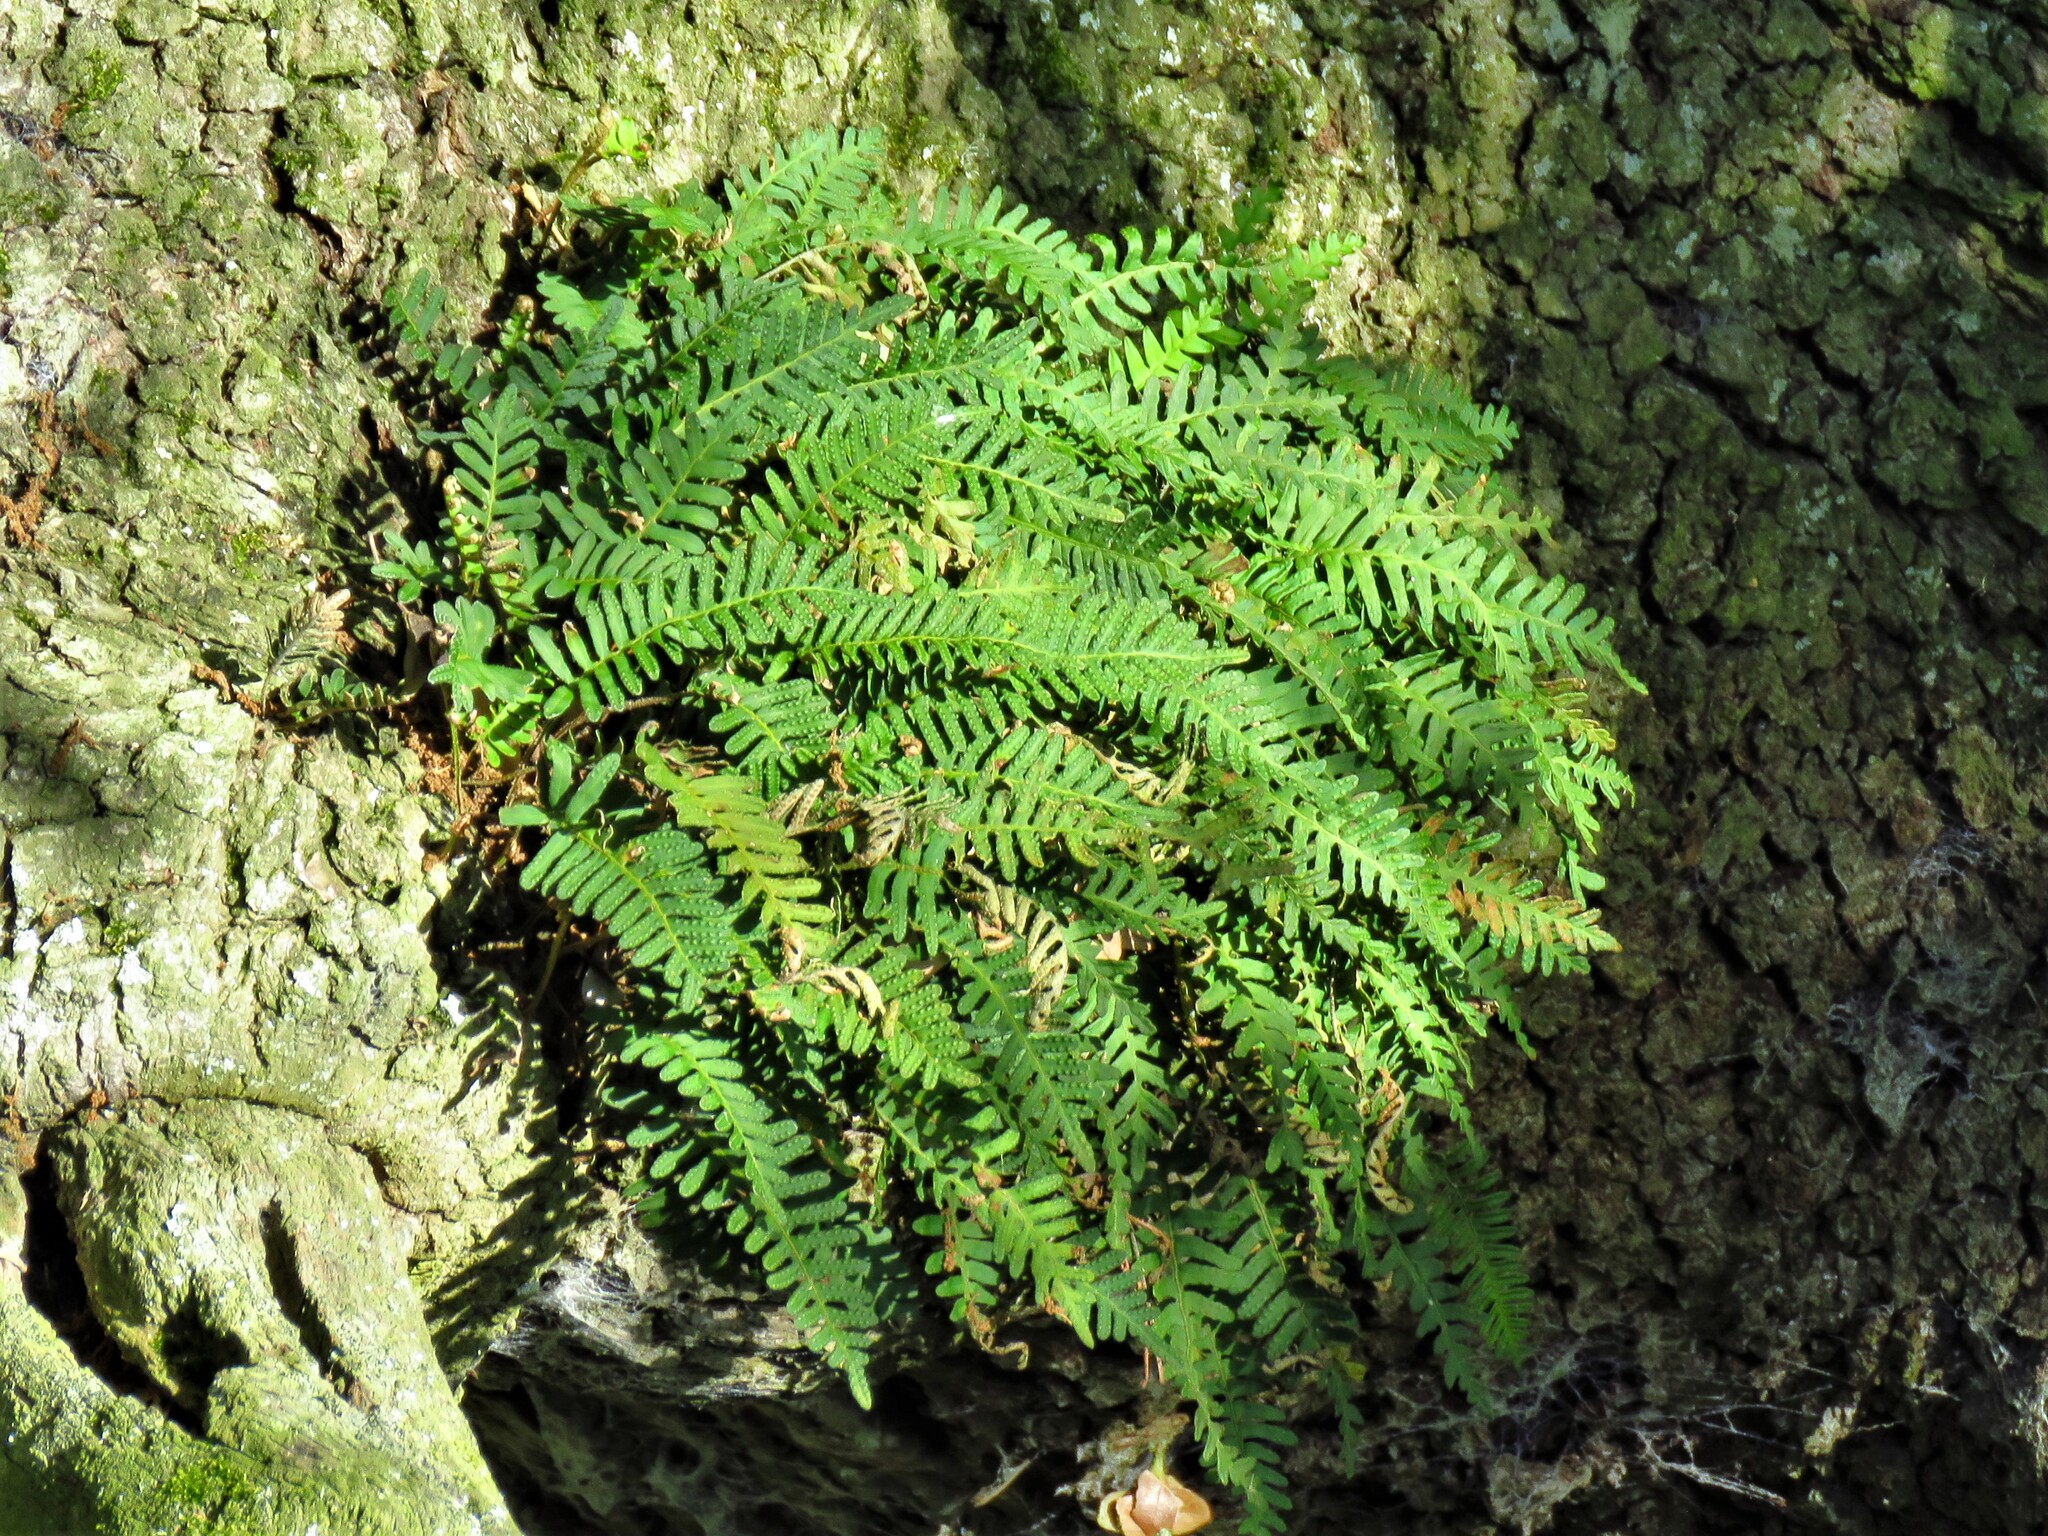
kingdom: Plantae
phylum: Tracheophyta
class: Polypodiopsida
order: Polypodiales
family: Polypodiaceae
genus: Pleopeltis
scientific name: Pleopeltis michauxiana
